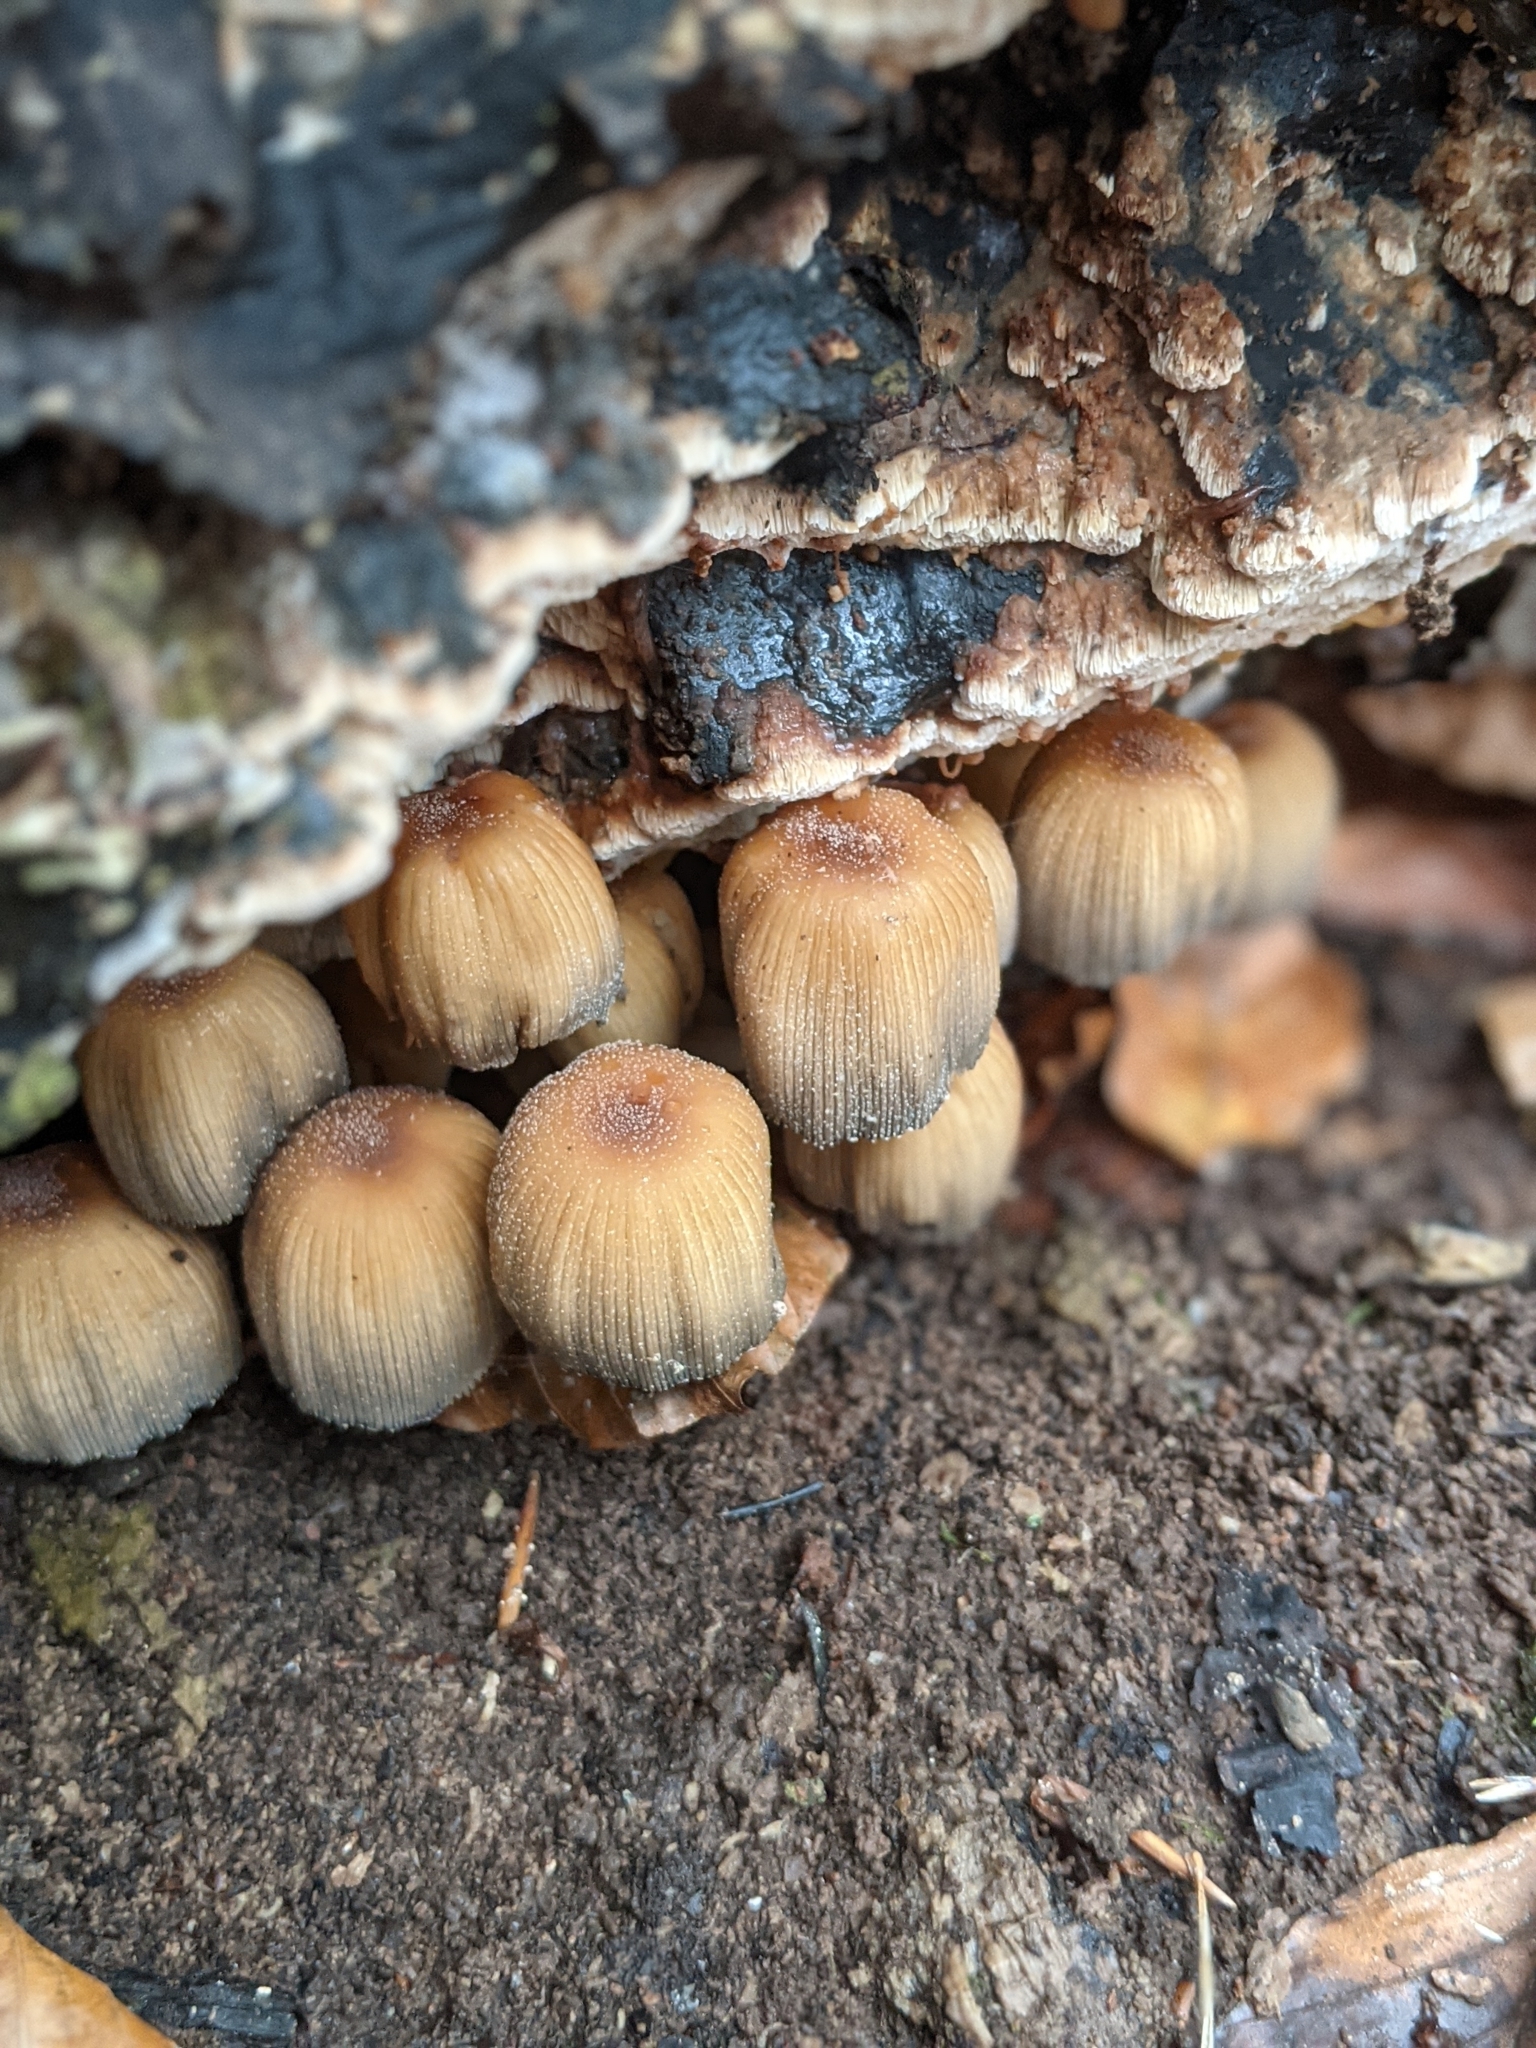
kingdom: Fungi
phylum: Basidiomycota
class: Agaricomycetes
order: Agaricales
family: Psathyrellaceae
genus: Coprinellus
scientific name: Coprinellus micaceus
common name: Glistening ink-cap
